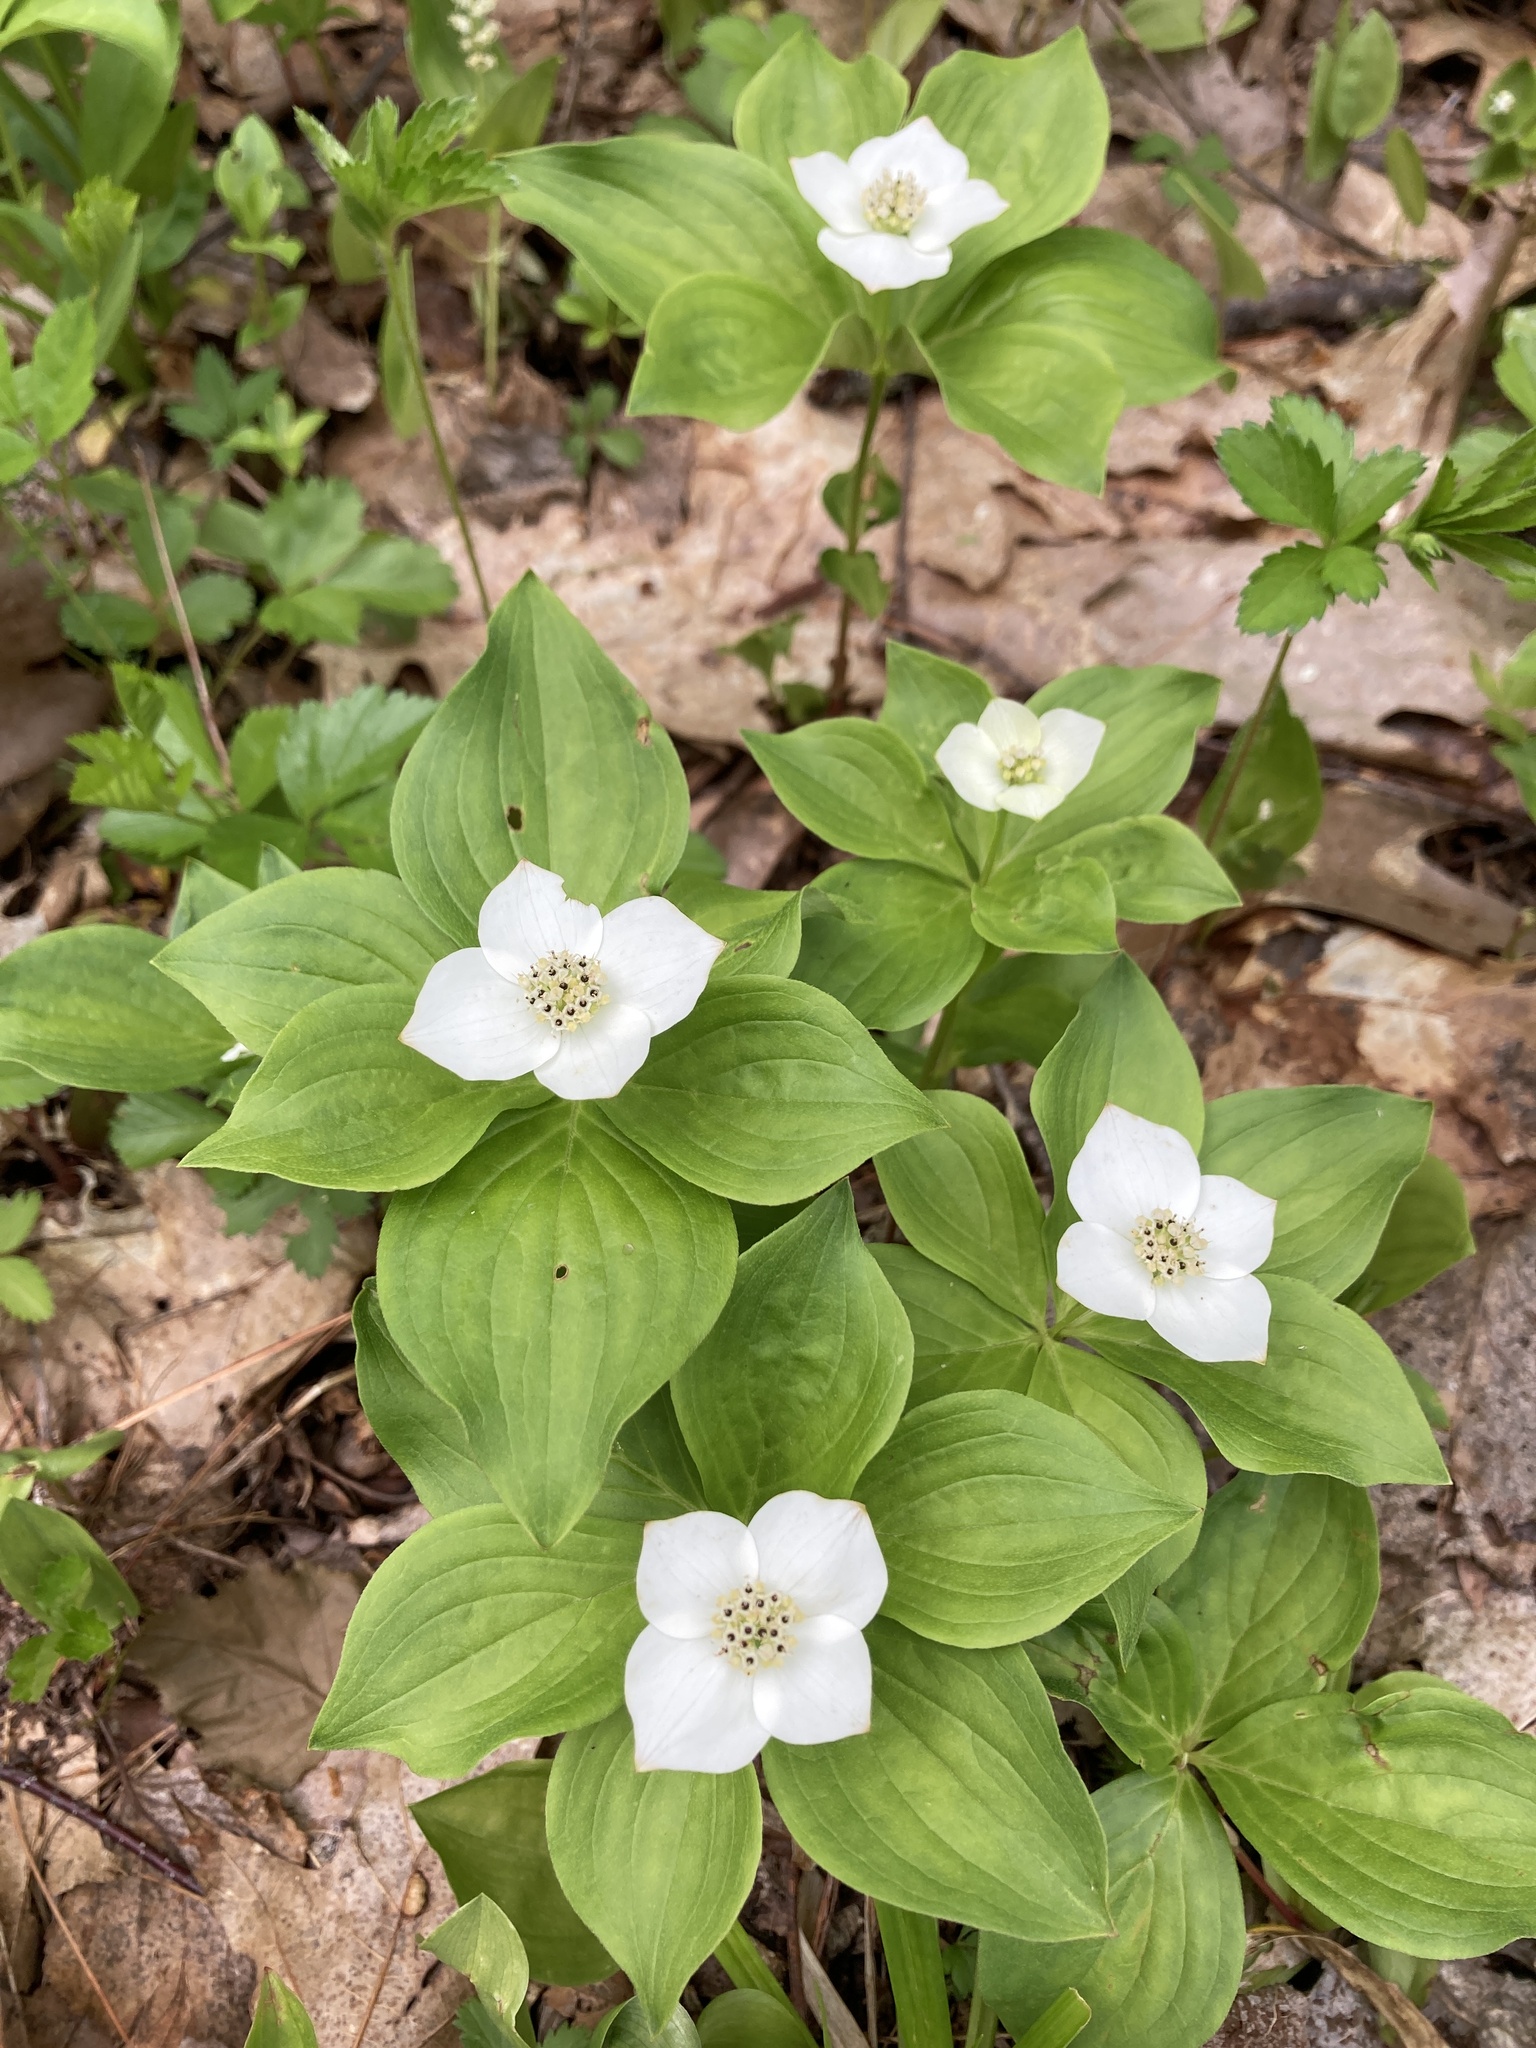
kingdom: Plantae
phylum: Tracheophyta
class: Magnoliopsida
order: Cornales
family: Cornaceae
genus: Cornus
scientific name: Cornus canadensis
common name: Creeping dogwood
